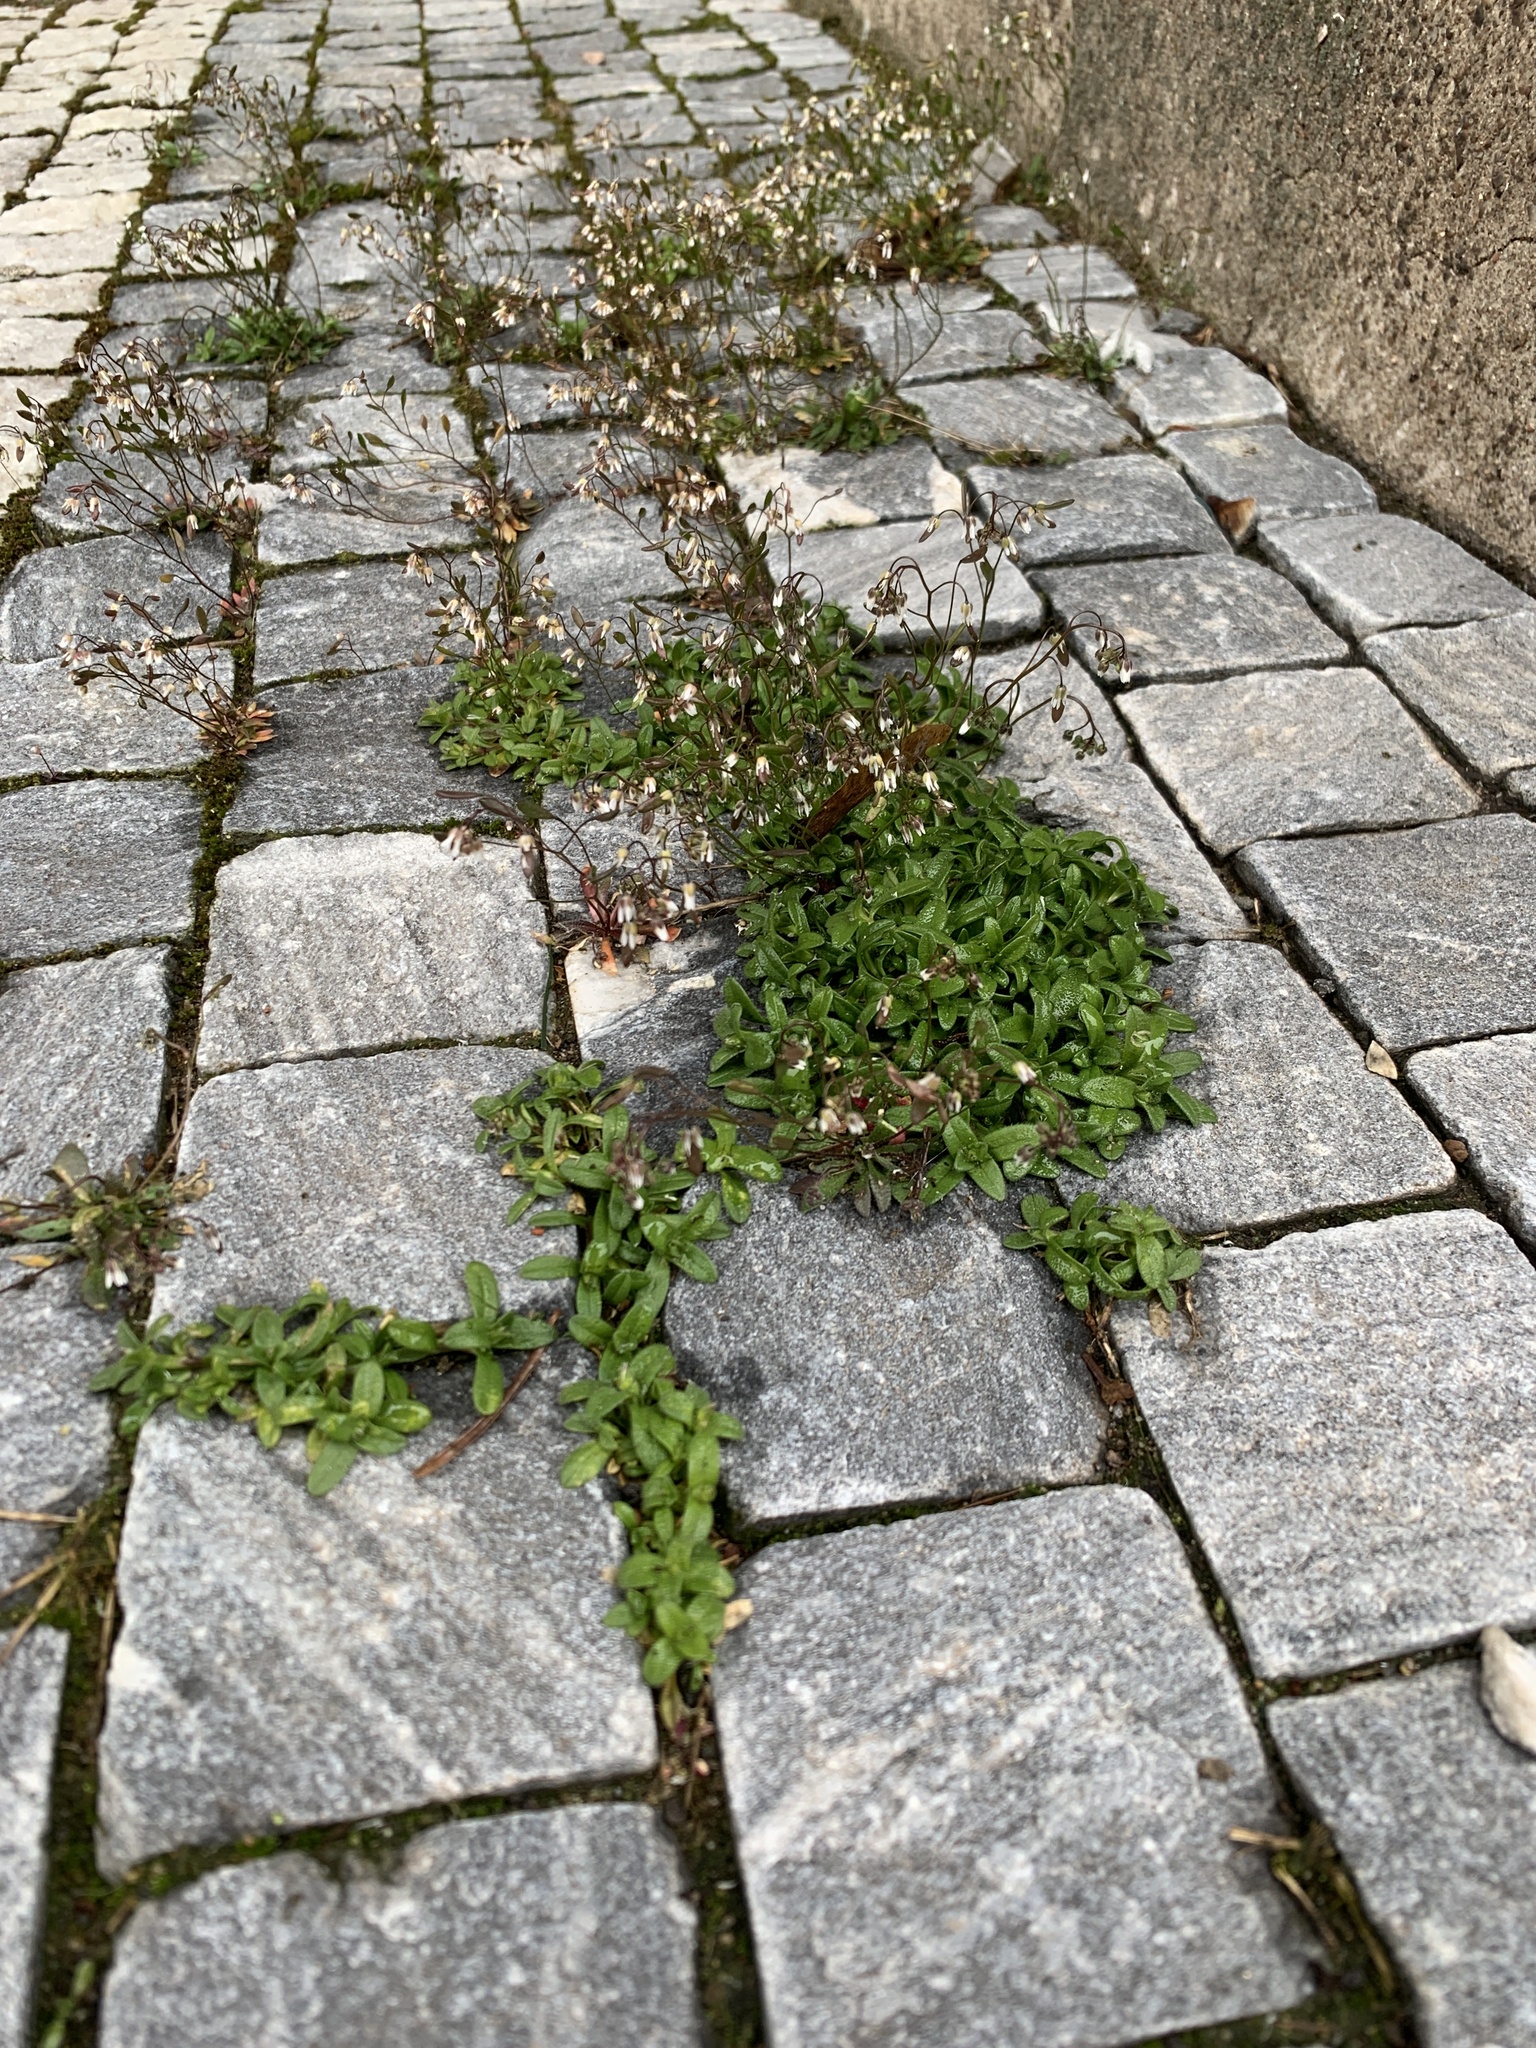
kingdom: Plantae
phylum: Tracheophyta
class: Magnoliopsida
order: Brassicales
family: Brassicaceae
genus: Draba
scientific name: Draba verna
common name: Spring draba
